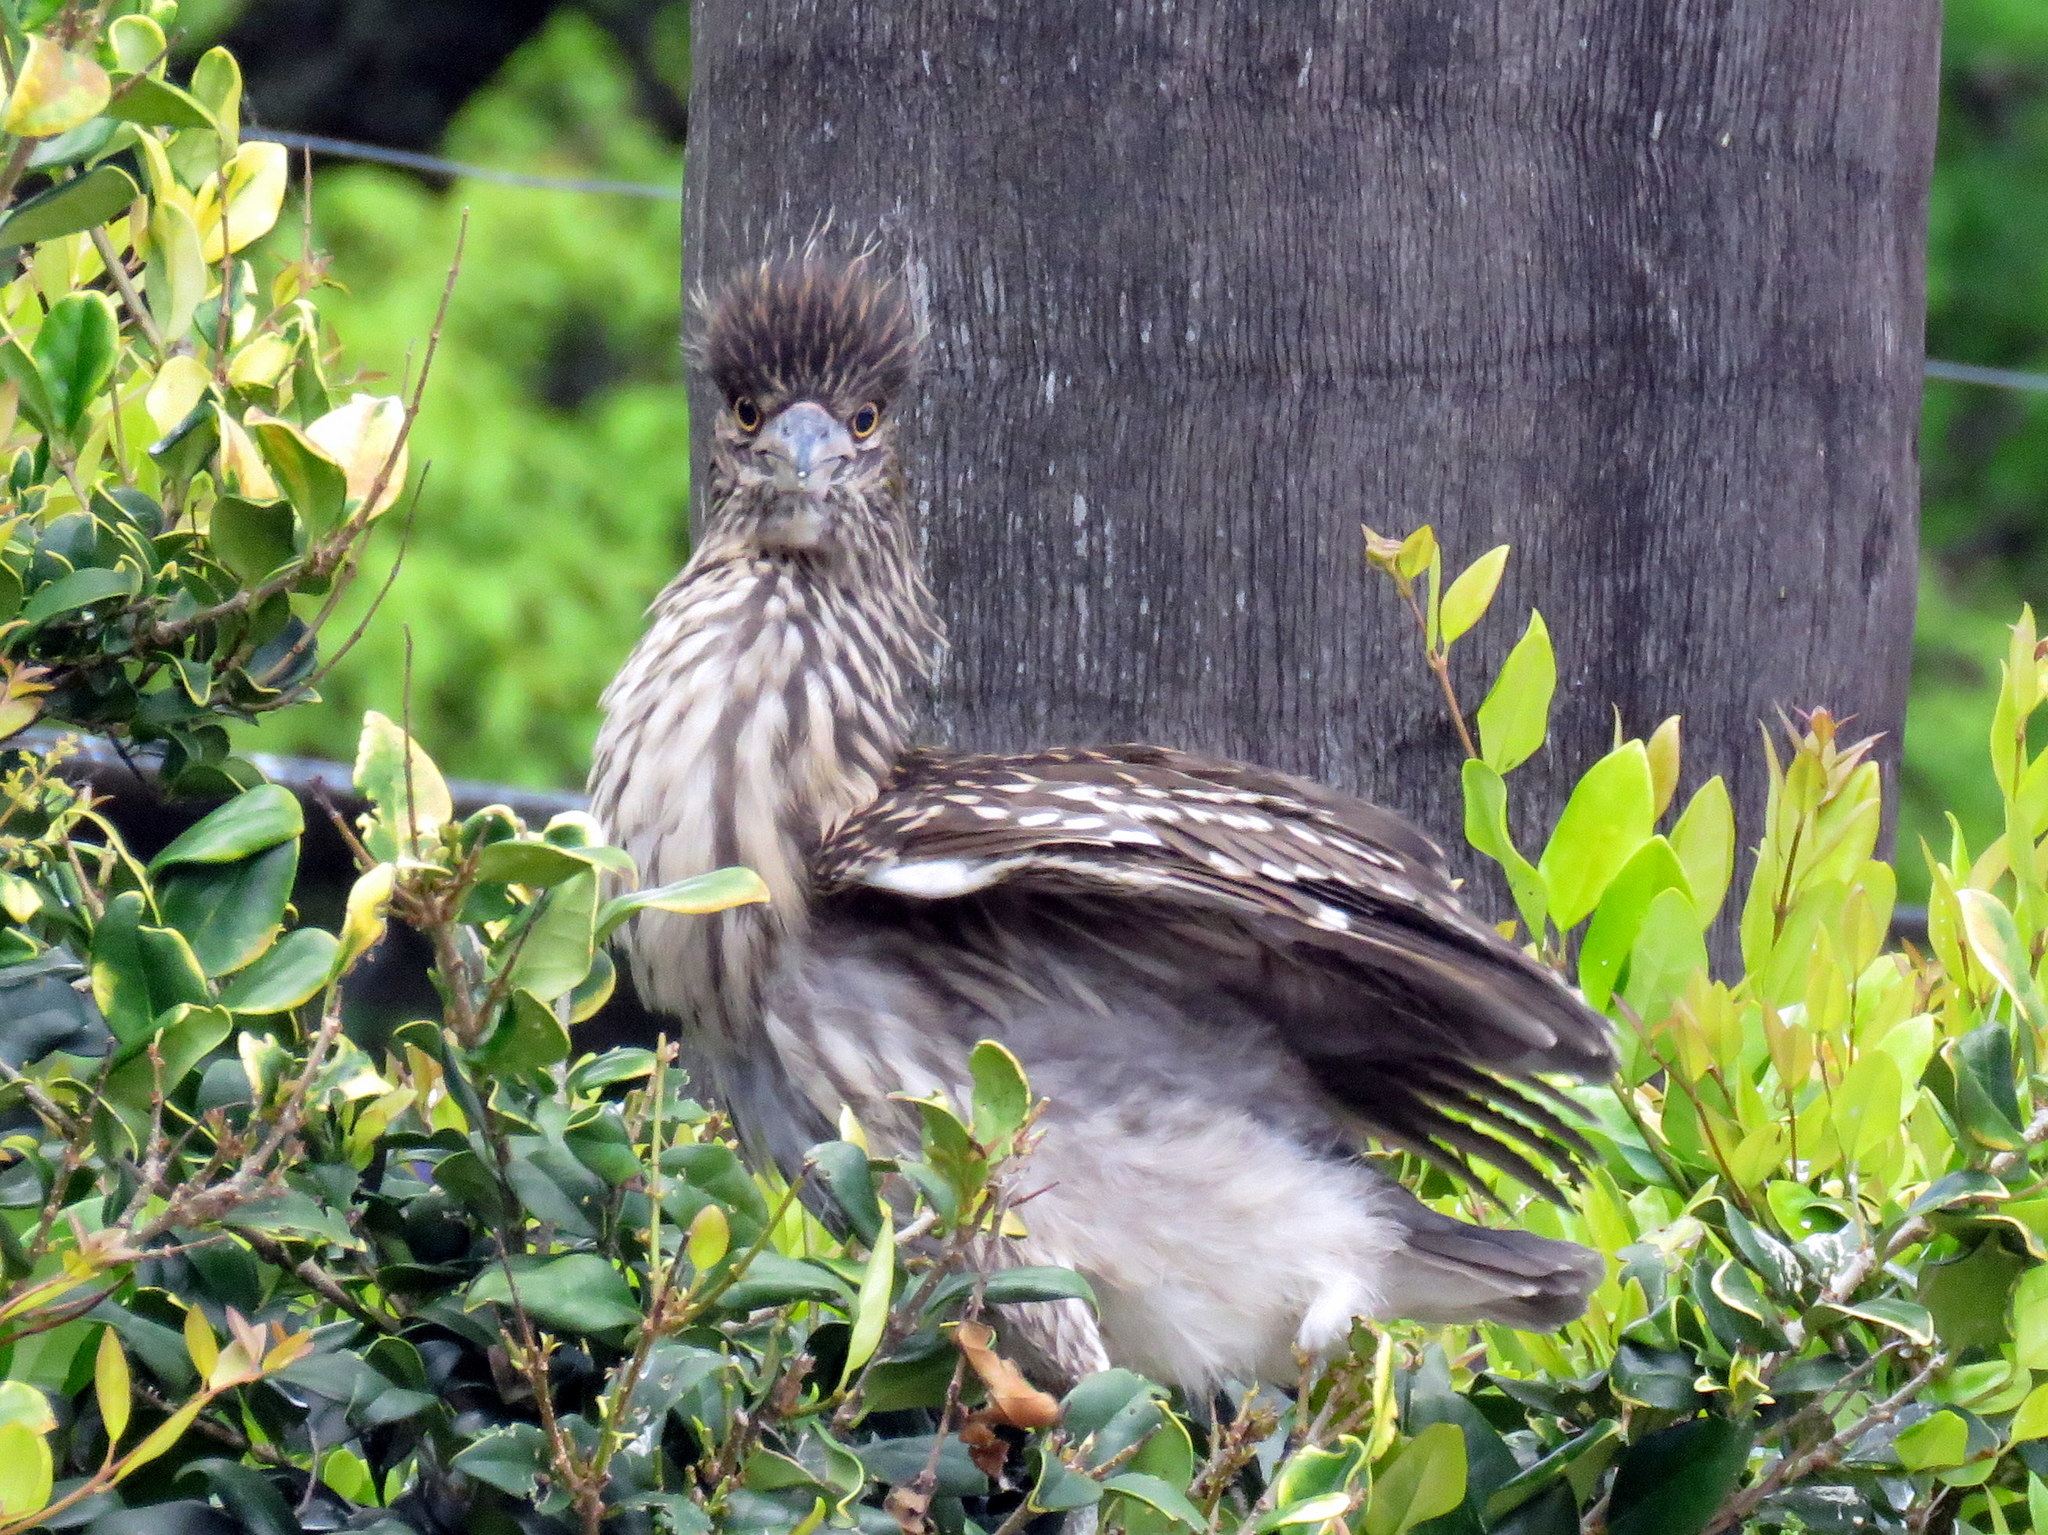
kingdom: Animalia
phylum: Chordata
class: Aves
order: Pelecaniformes
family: Ardeidae
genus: Nycticorax
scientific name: Nycticorax nycticorax
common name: Black-crowned night heron
